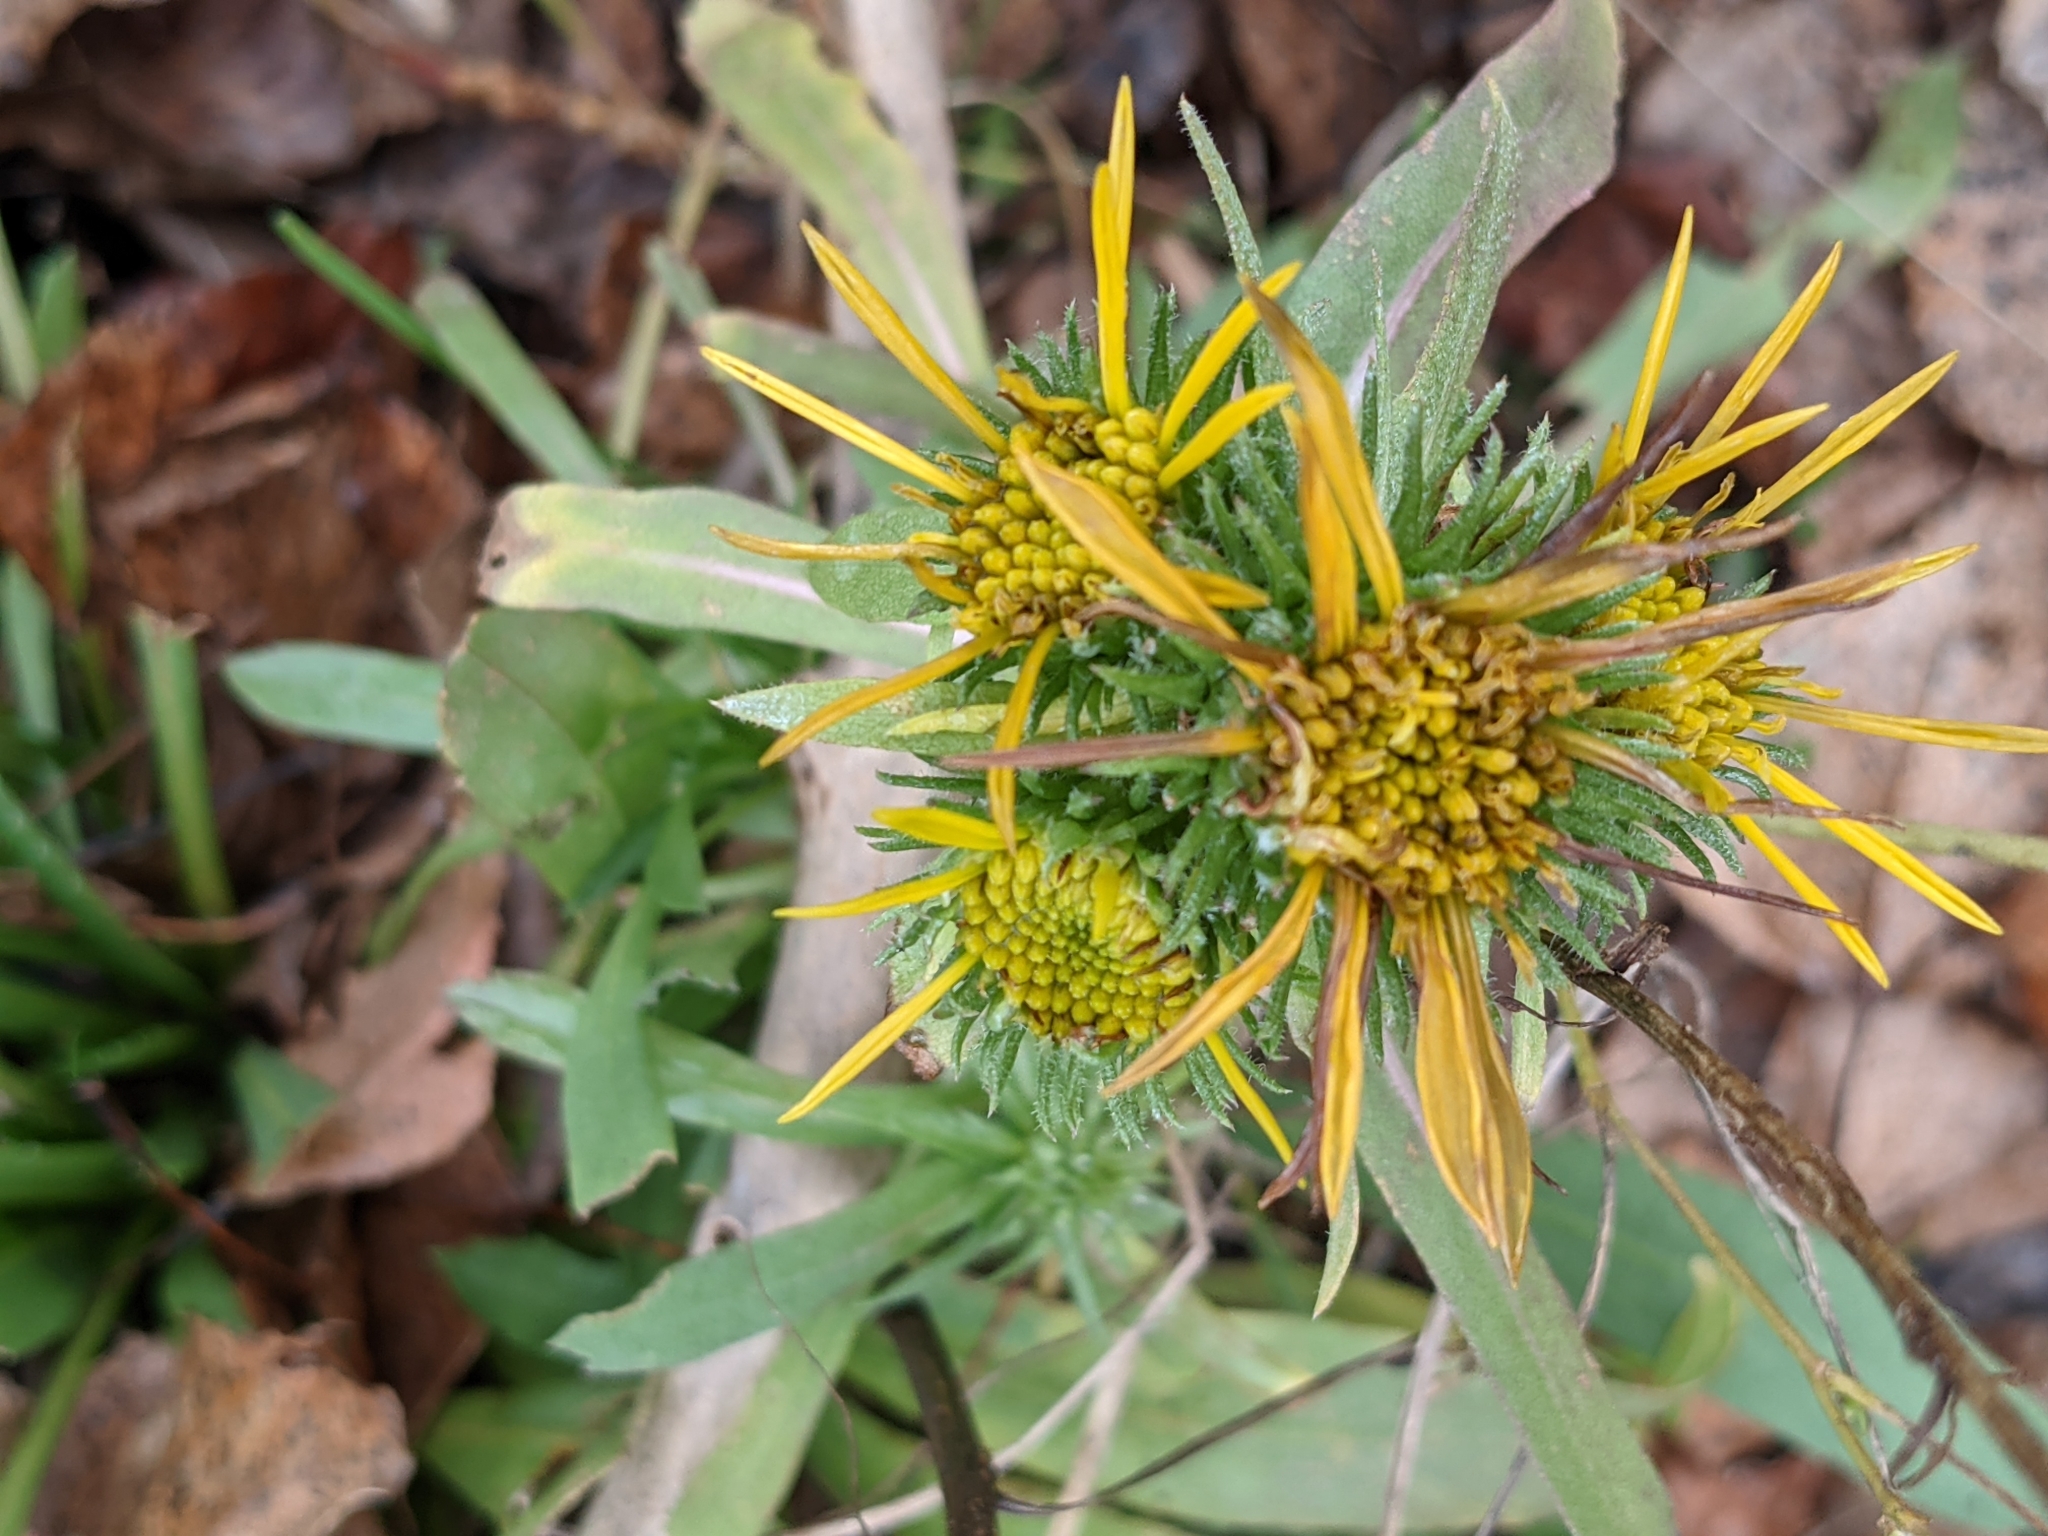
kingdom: Plantae
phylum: Tracheophyta
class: Magnoliopsida
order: Asterales
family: Asteraceae
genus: Grindelia
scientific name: Grindelia hirsutula
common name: Hairy gumweed
